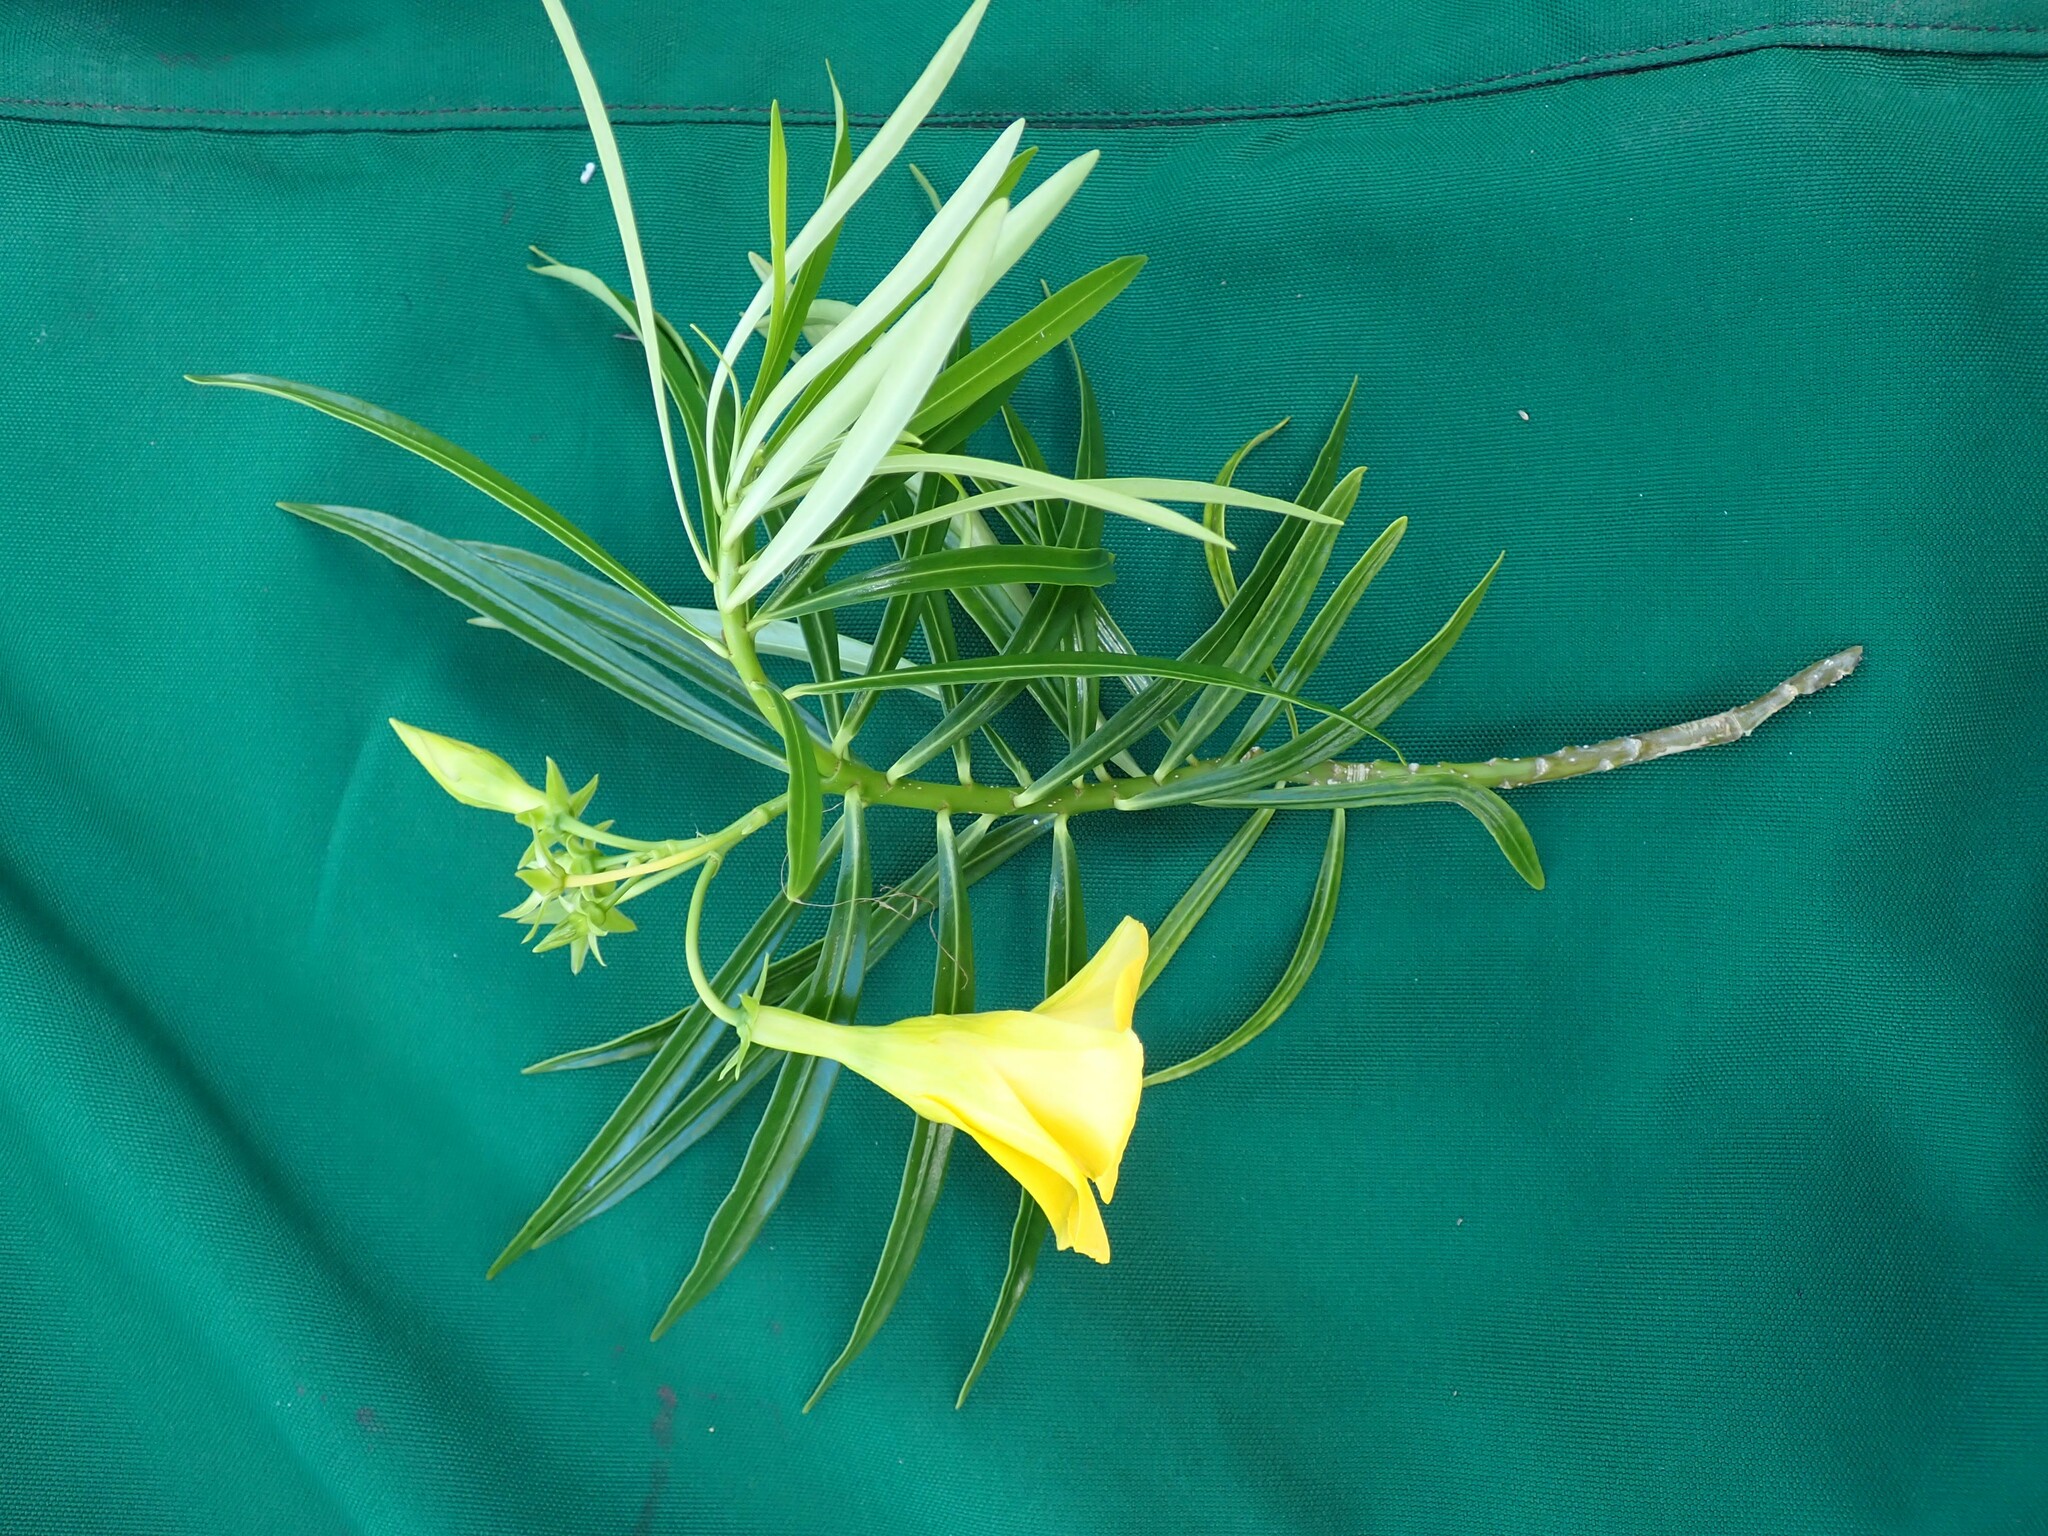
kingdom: Plantae
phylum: Tracheophyta
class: Magnoliopsida
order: Gentianales
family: Apocynaceae
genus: Cascabela
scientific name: Cascabela thevetia
